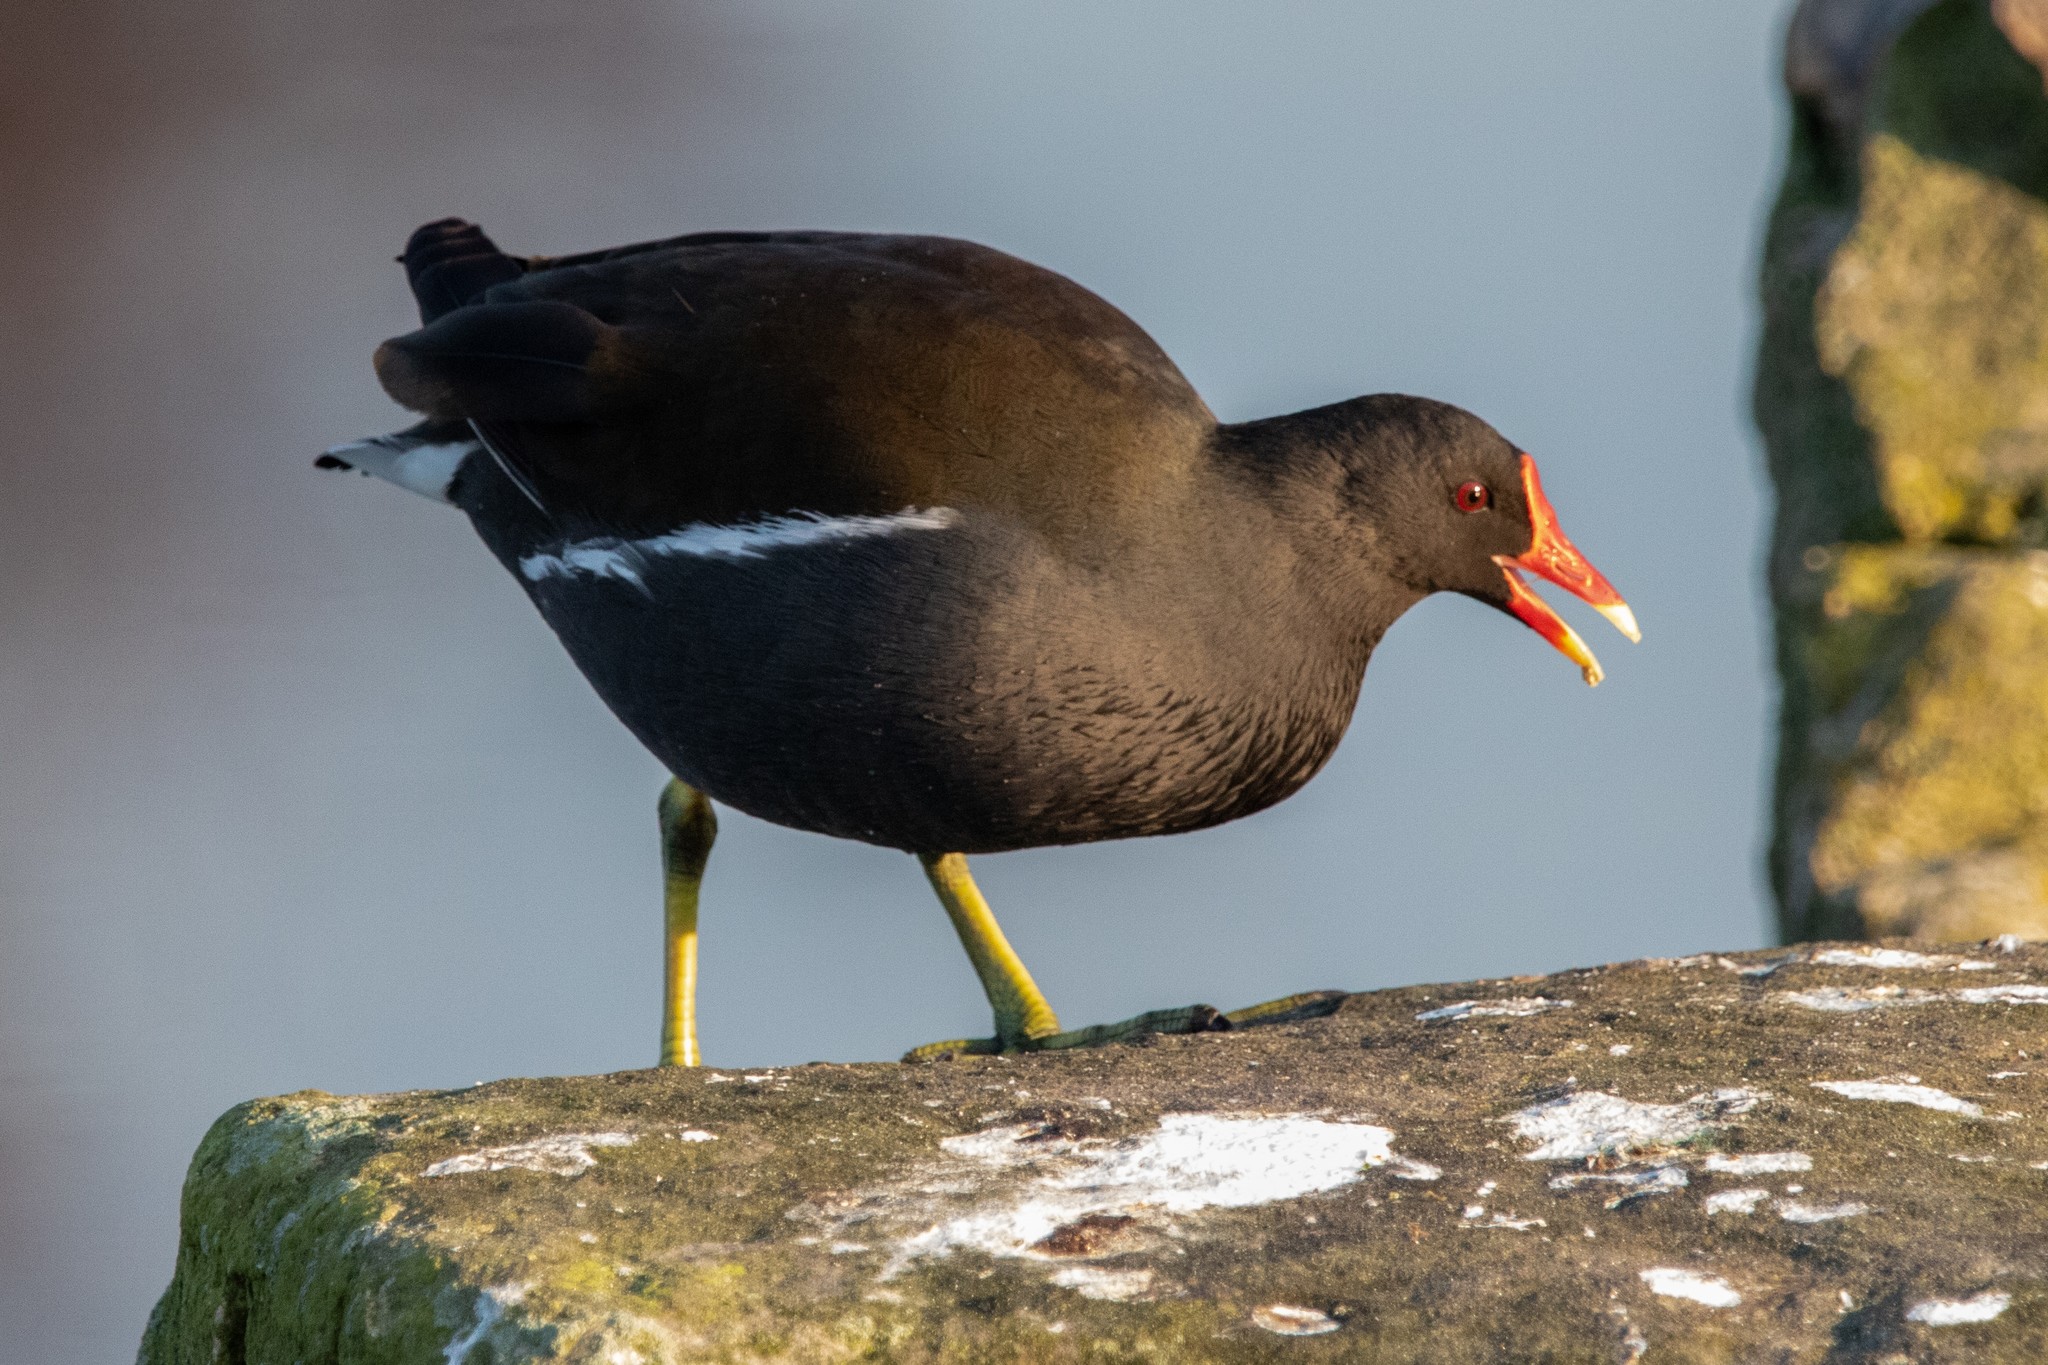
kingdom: Animalia
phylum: Chordata
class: Aves
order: Gruiformes
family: Rallidae
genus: Gallinula
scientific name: Gallinula chloropus
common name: Common moorhen
